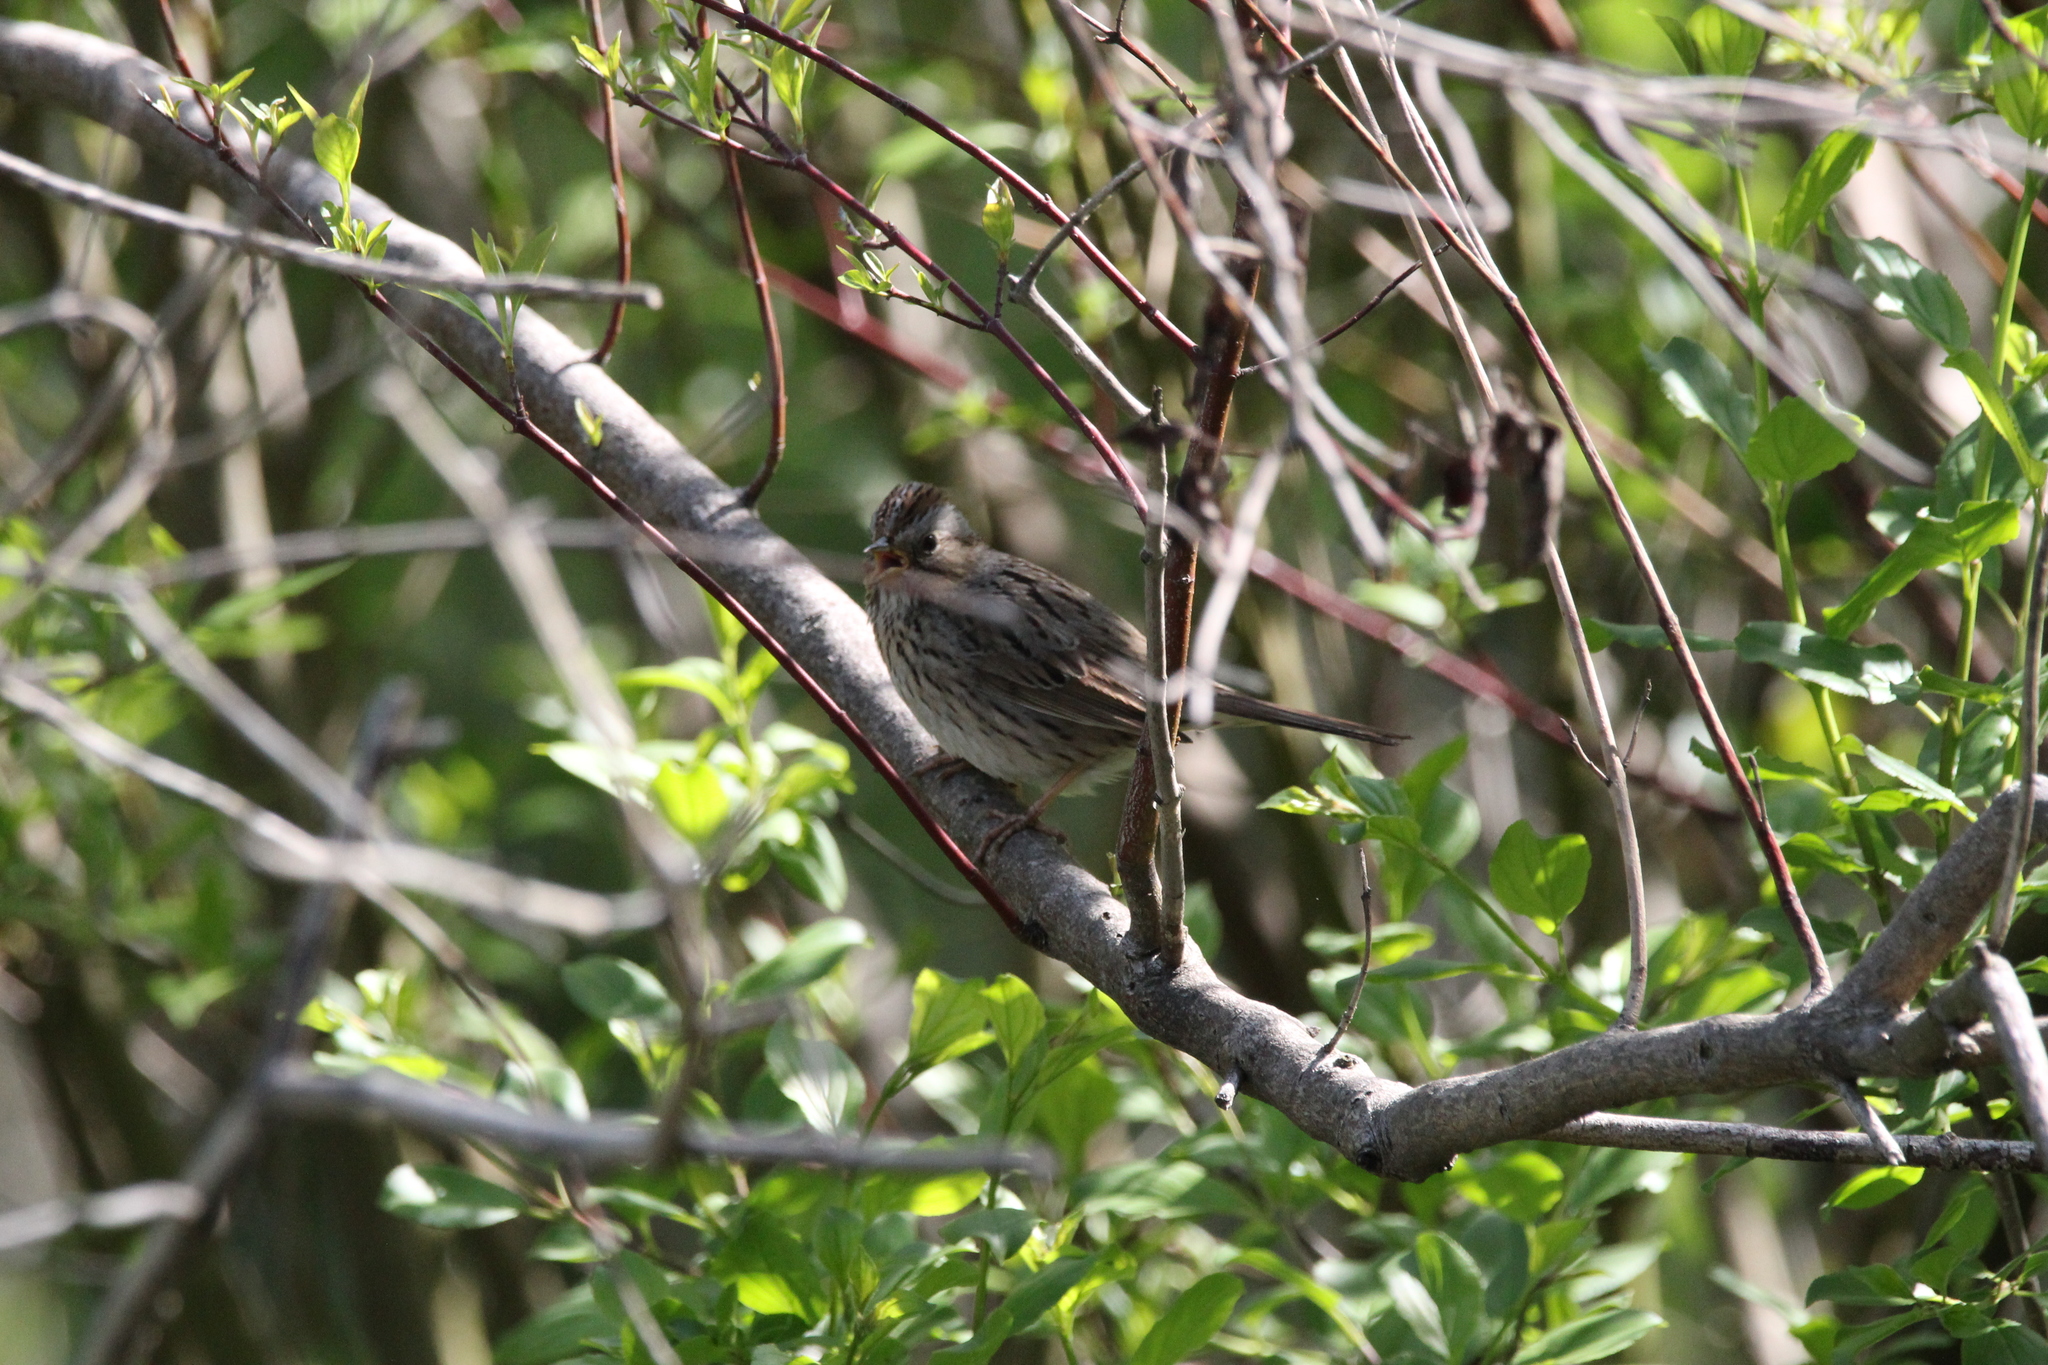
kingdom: Animalia
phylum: Chordata
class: Aves
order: Passeriformes
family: Passerellidae
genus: Melospiza
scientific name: Melospiza lincolnii
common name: Lincoln's sparrow
